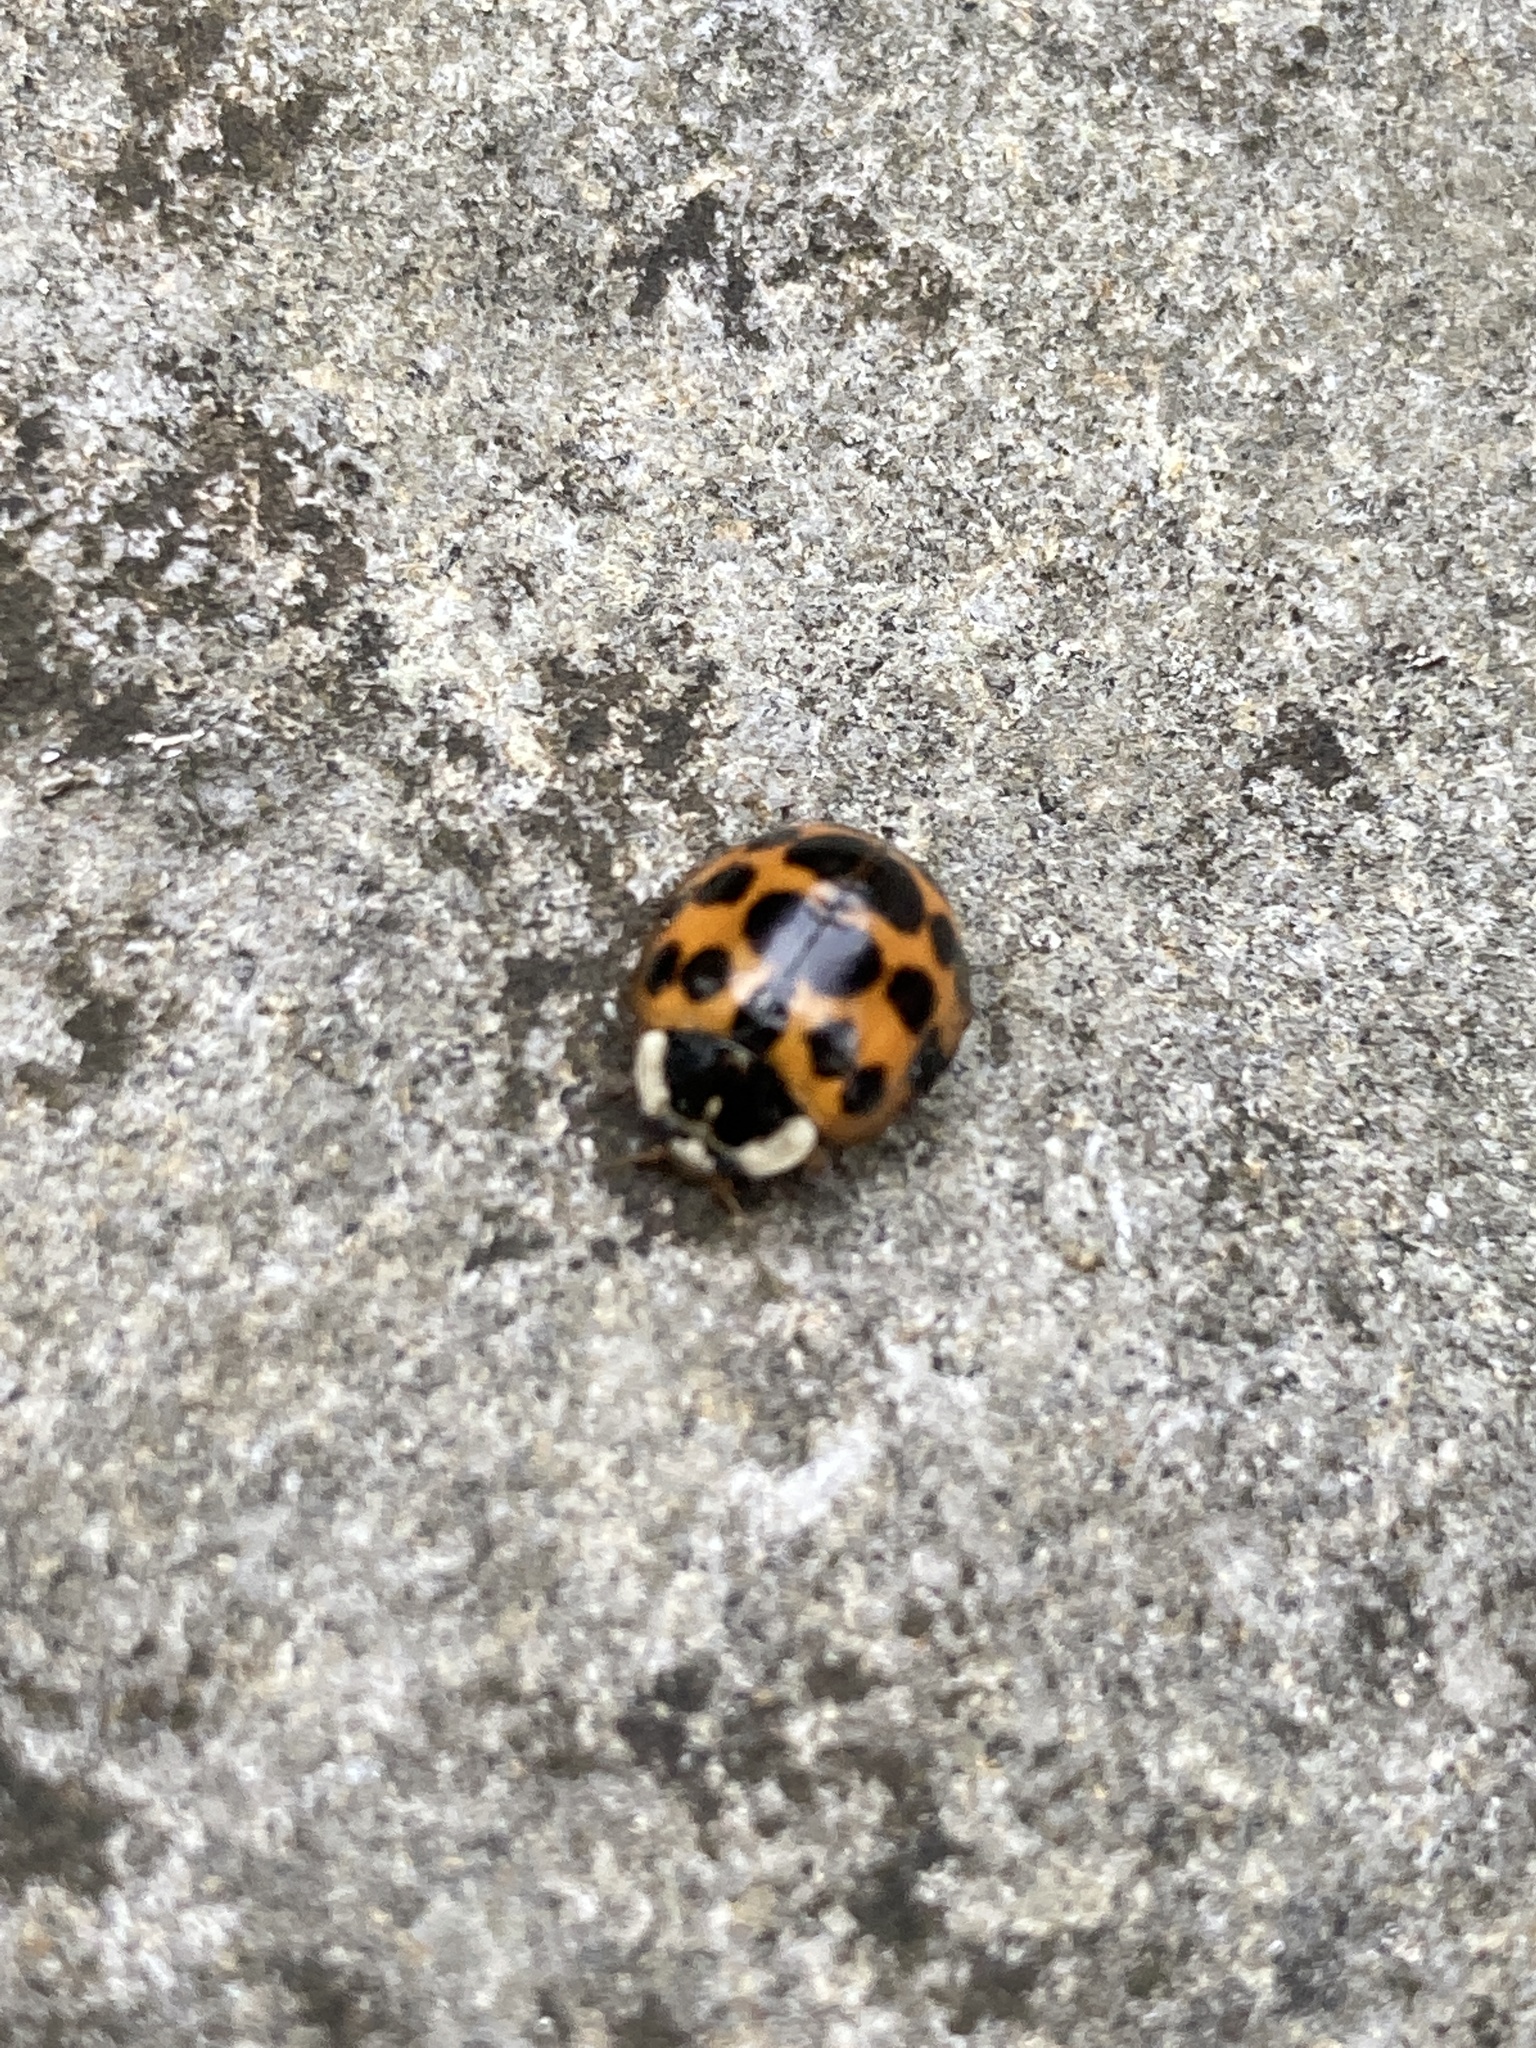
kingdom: Animalia
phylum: Arthropoda
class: Insecta
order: Coleoptera
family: Coccinellidae
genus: Harmonia
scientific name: Harmonia axyridis
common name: Harlequin ladybird
